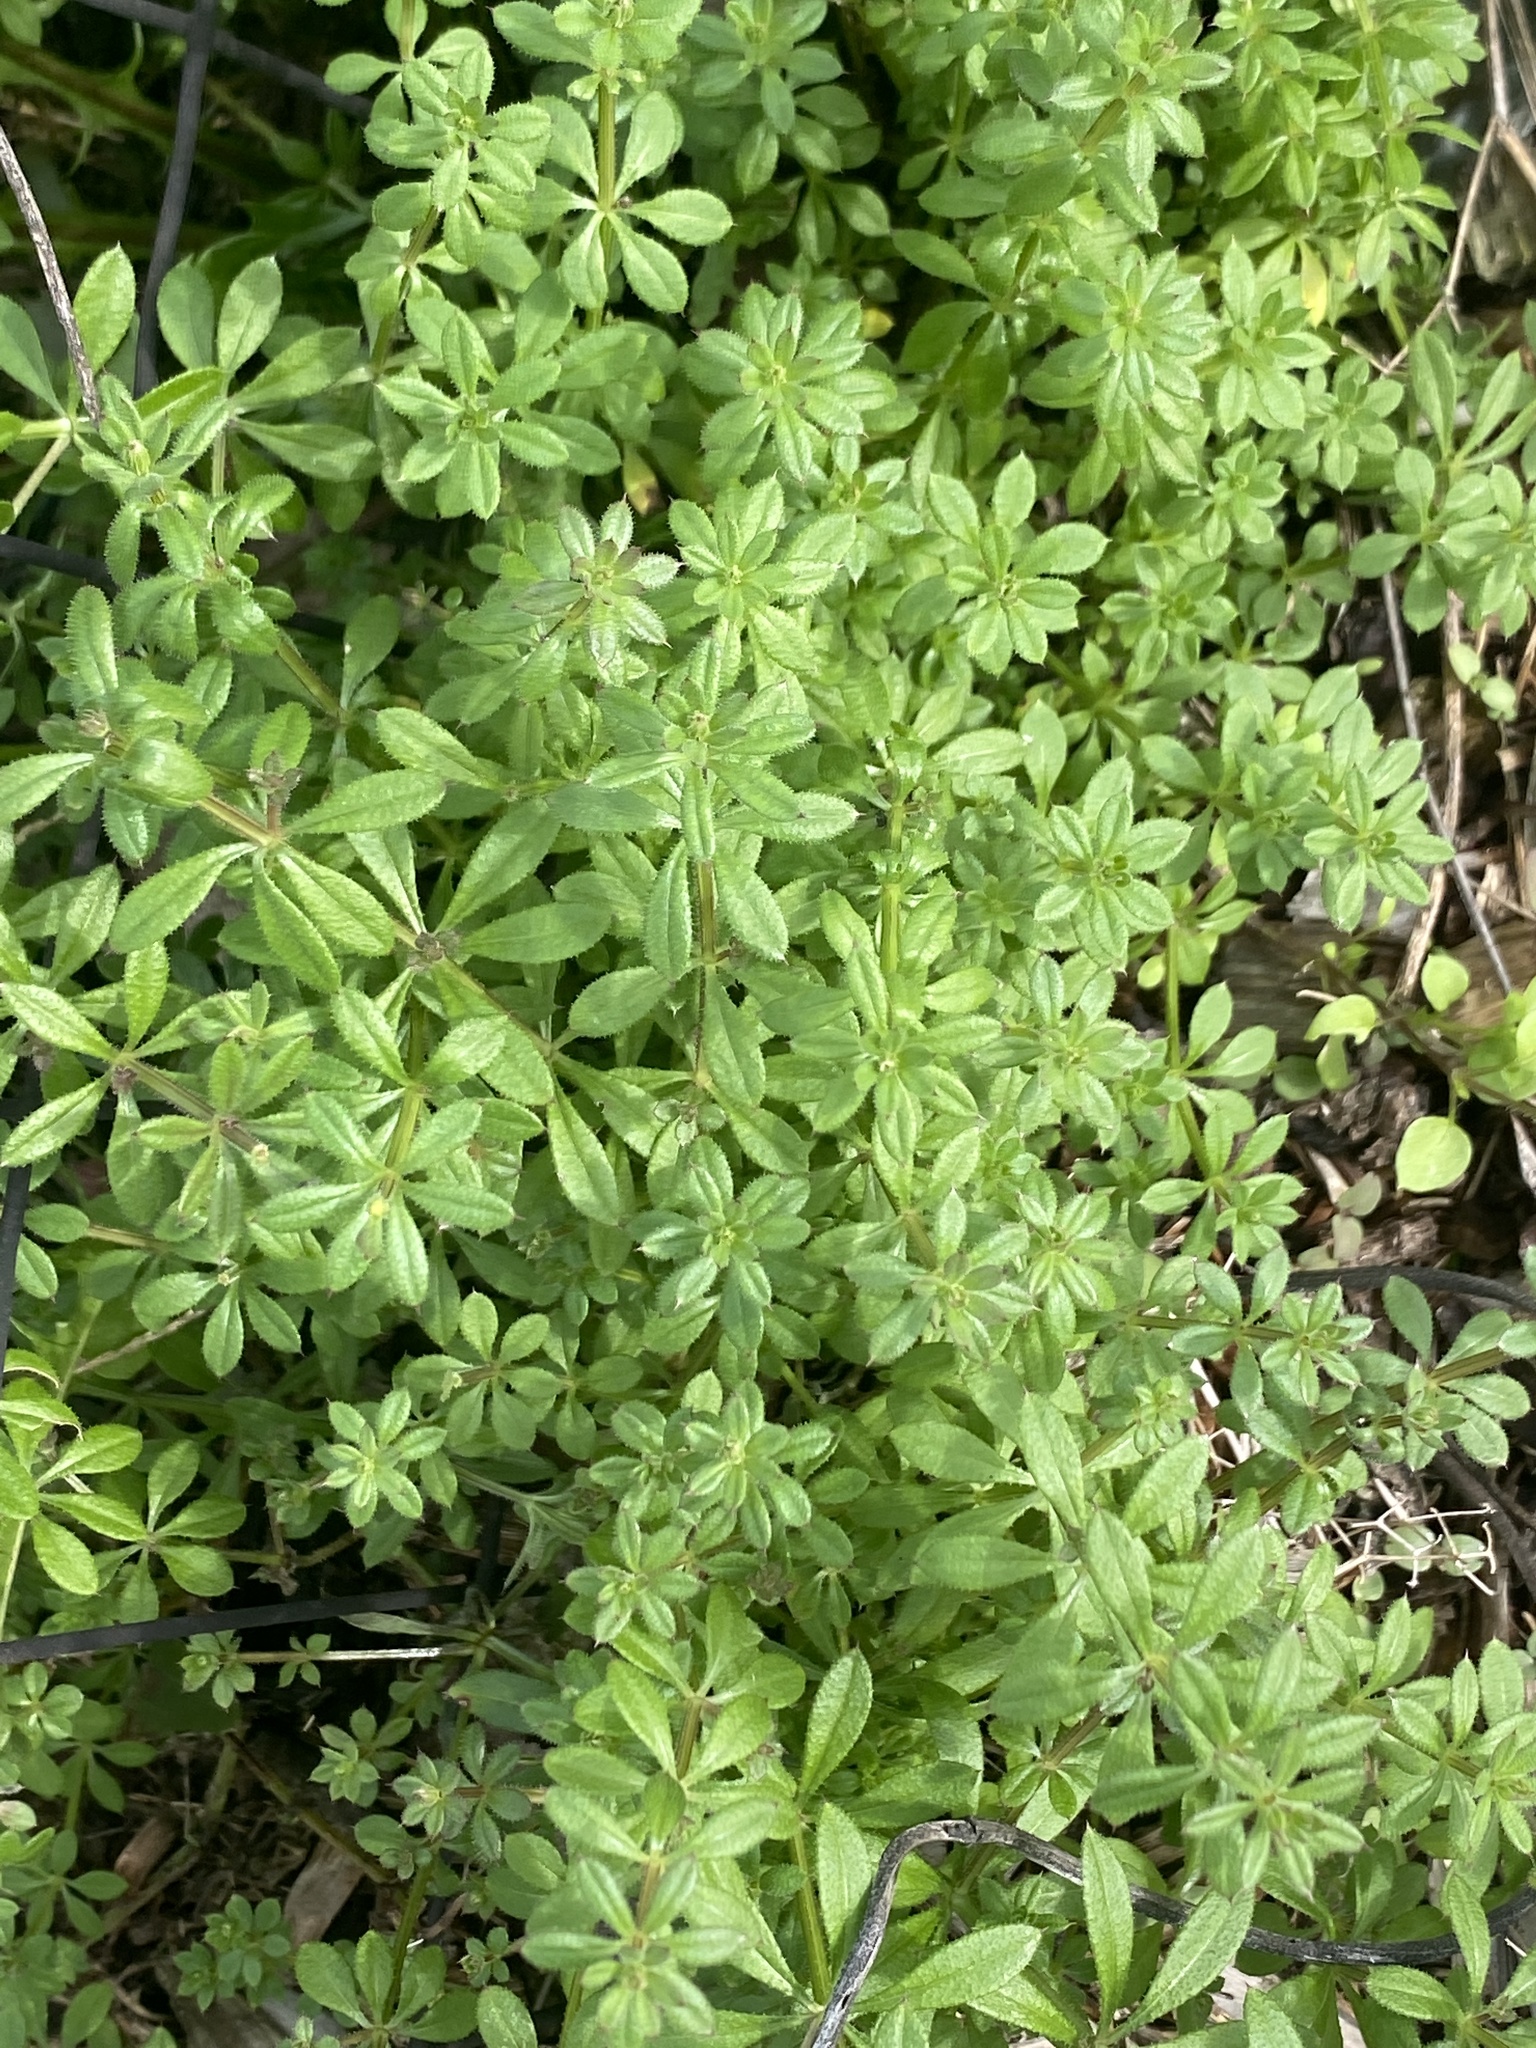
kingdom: Plantae
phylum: Tracheophyta
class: Magnoliopsida
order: Gentianales
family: Rubiaceae
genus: Galium
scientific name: Galium aparine
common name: Cleavers
